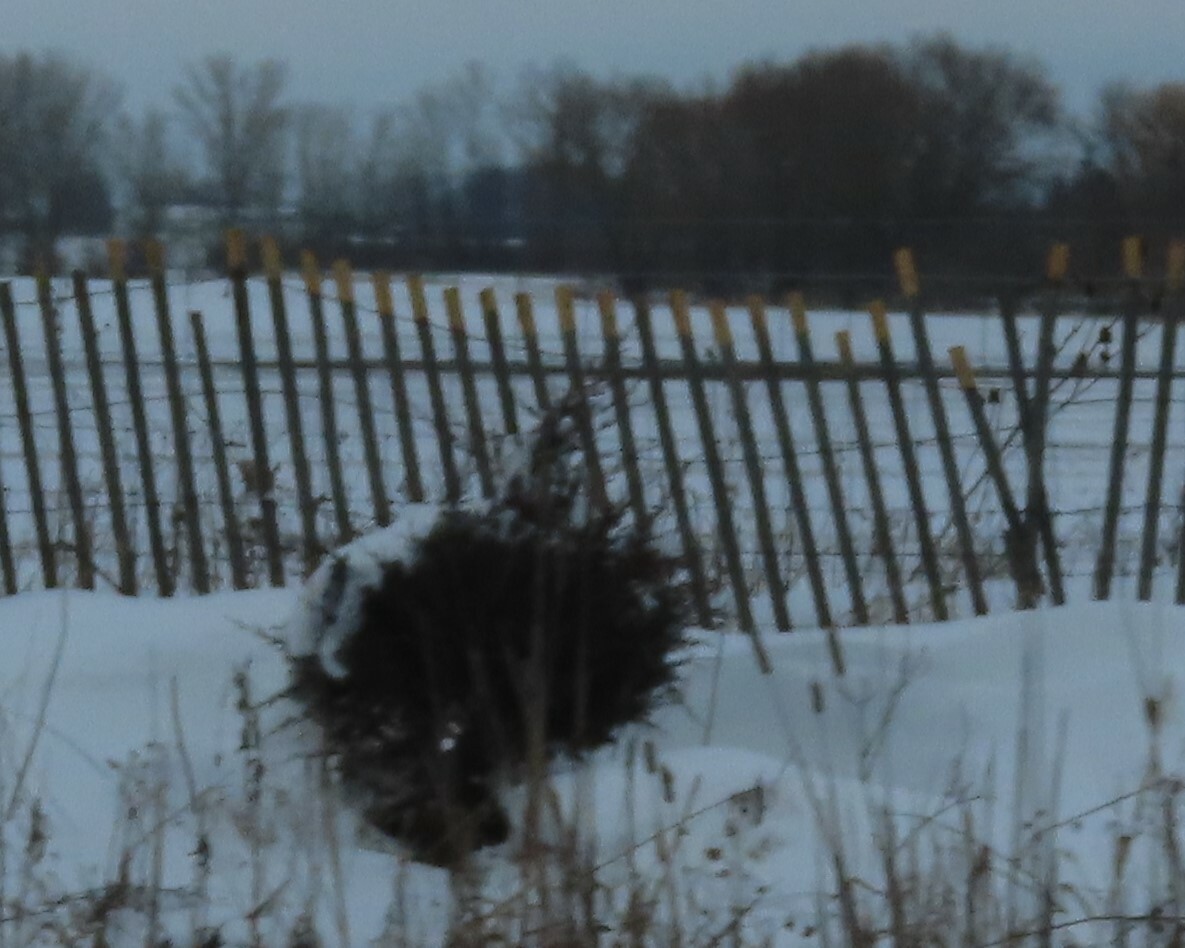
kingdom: Plantae
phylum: Tracheophyta
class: Pinopsida
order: Pinales
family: Cupressaceae
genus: Juniperus
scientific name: Juniperus virginiana
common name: Red juniper
